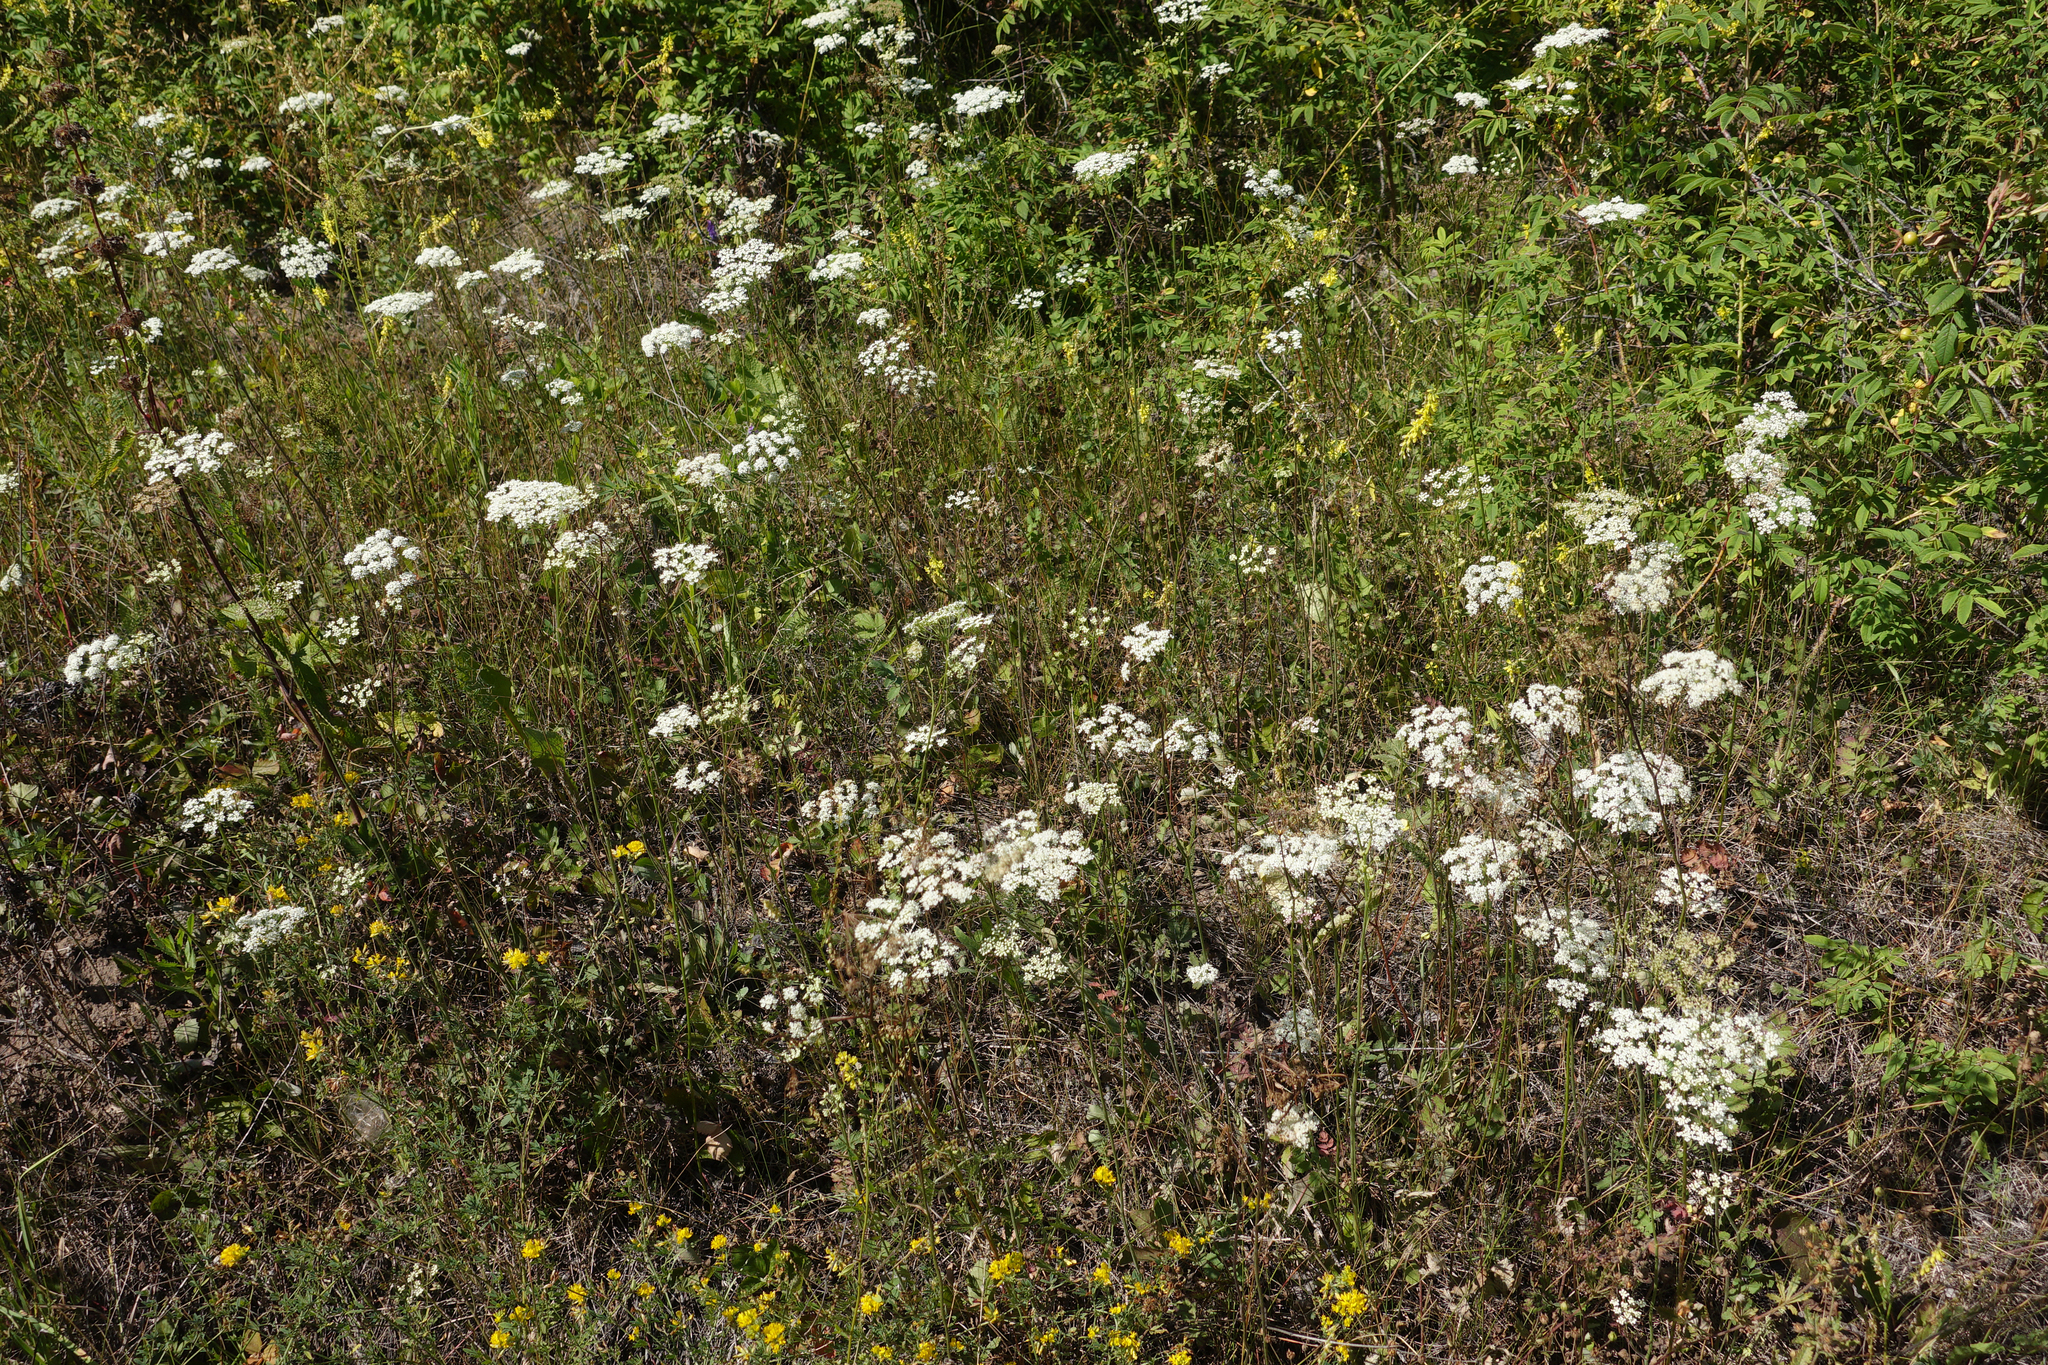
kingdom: Plantae
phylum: Tracheophyta
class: Magnoliopsida
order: Apiales
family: Apiaceae
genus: Pimpinella
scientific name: Pimpinella saxifraga
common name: Burnet-saxifrage
